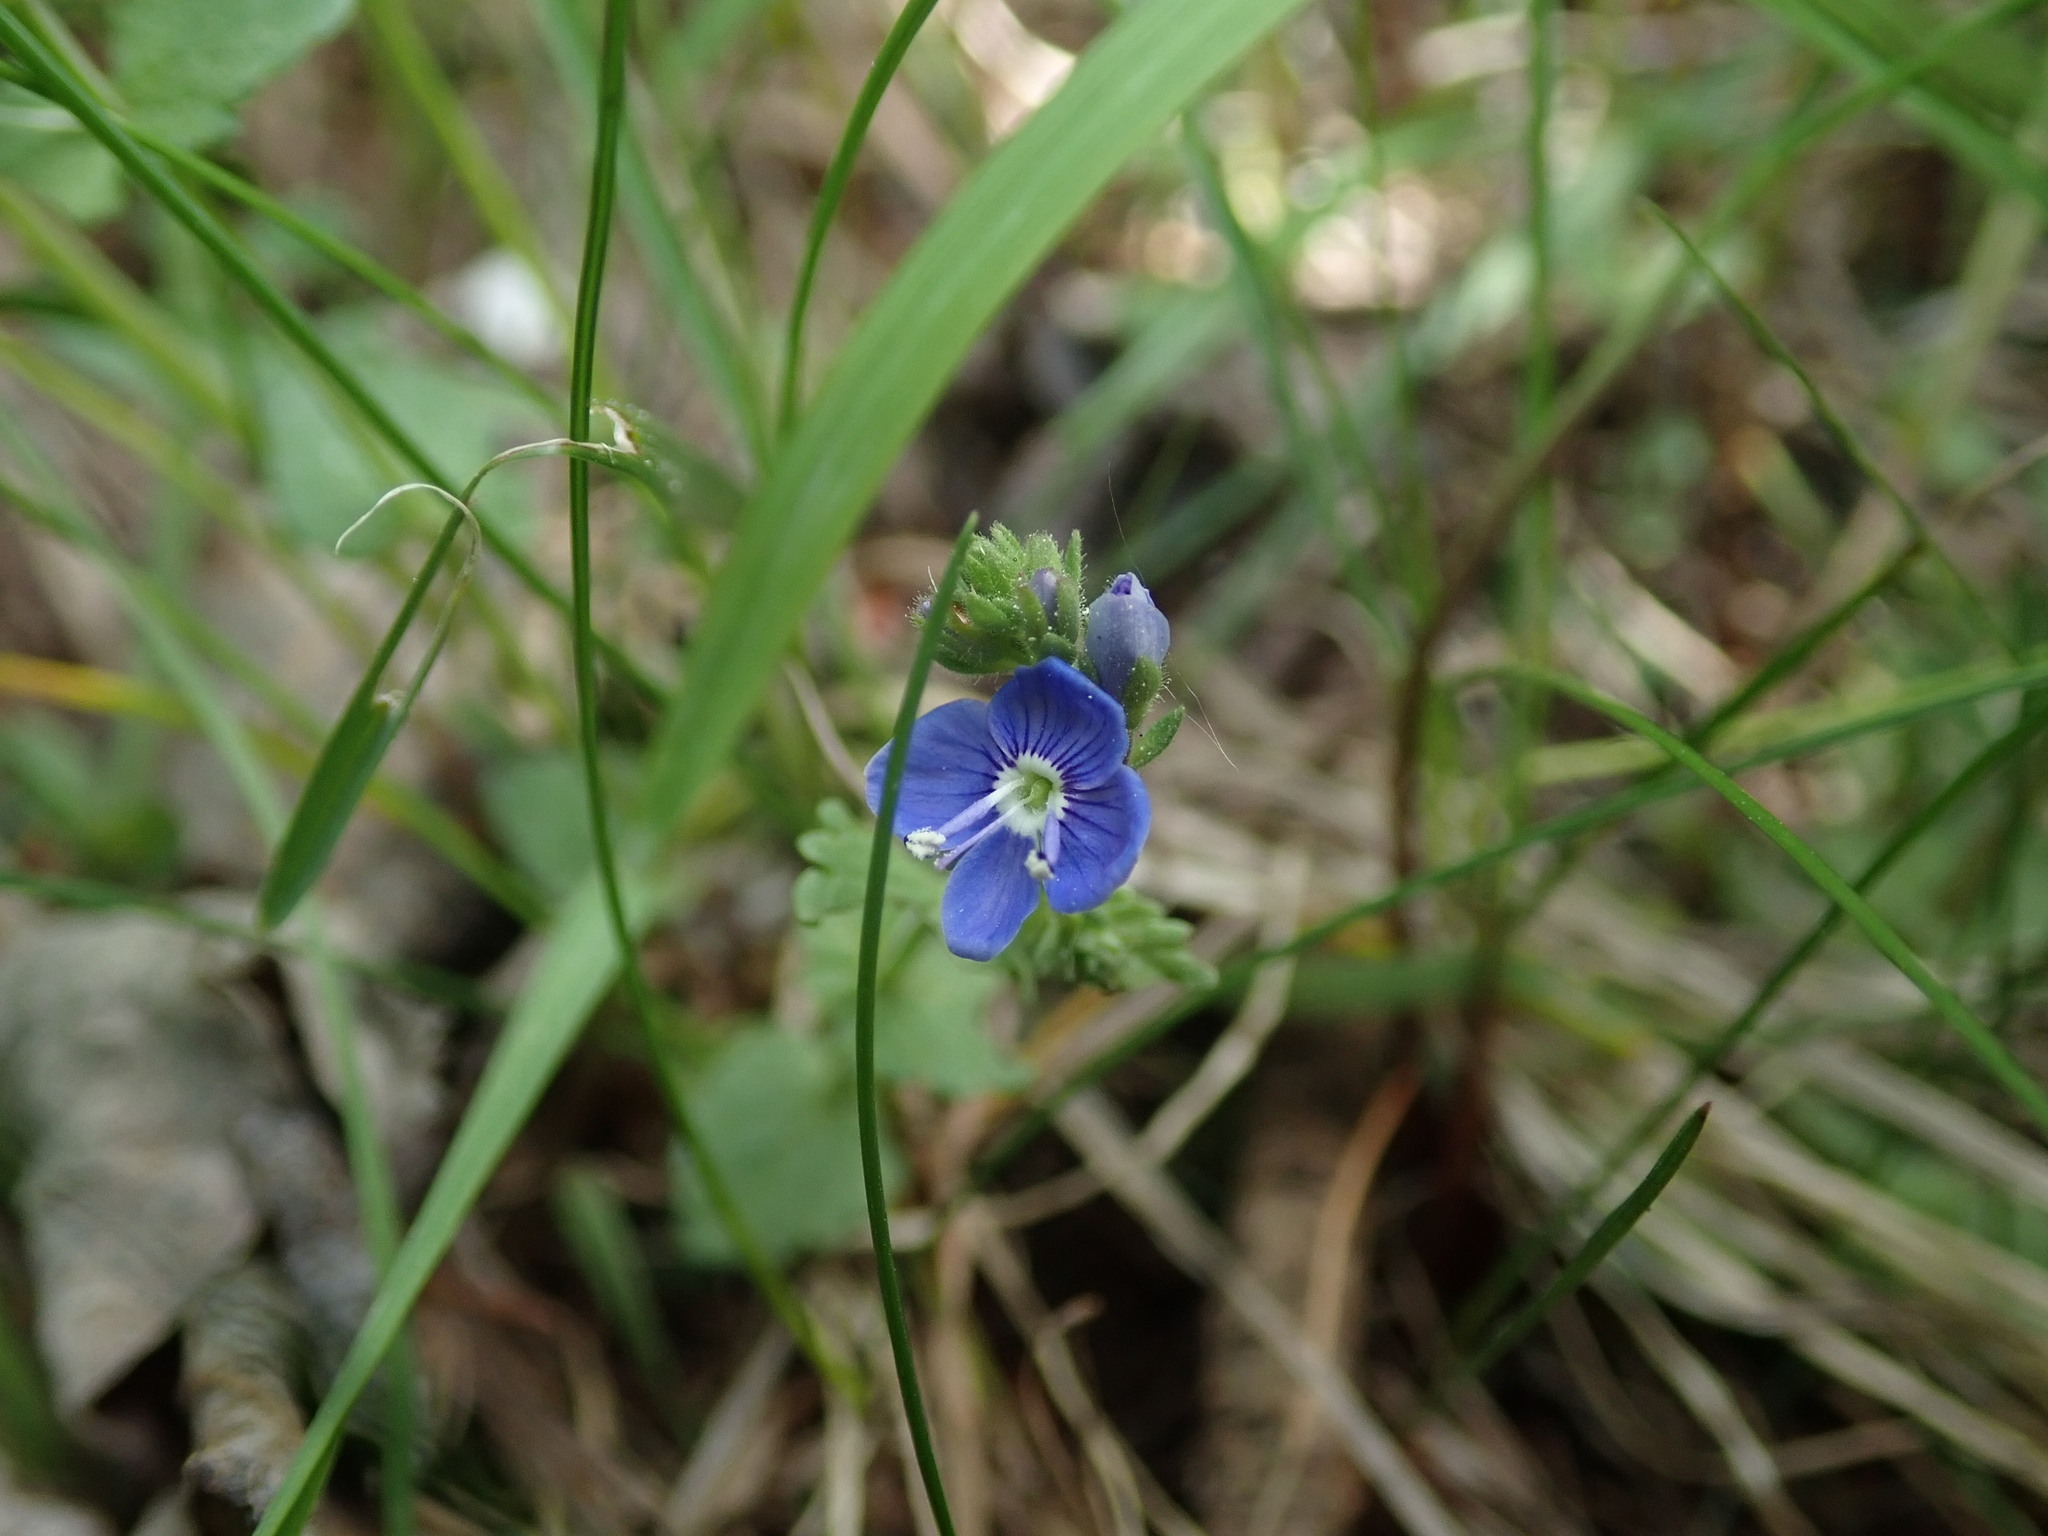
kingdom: Plantae
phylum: Tracheophyta
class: Magnoliopsida
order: Lamiales
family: Plantaginaceae
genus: Veronica
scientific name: Veronica chamaedrys
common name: Germander speedwell
